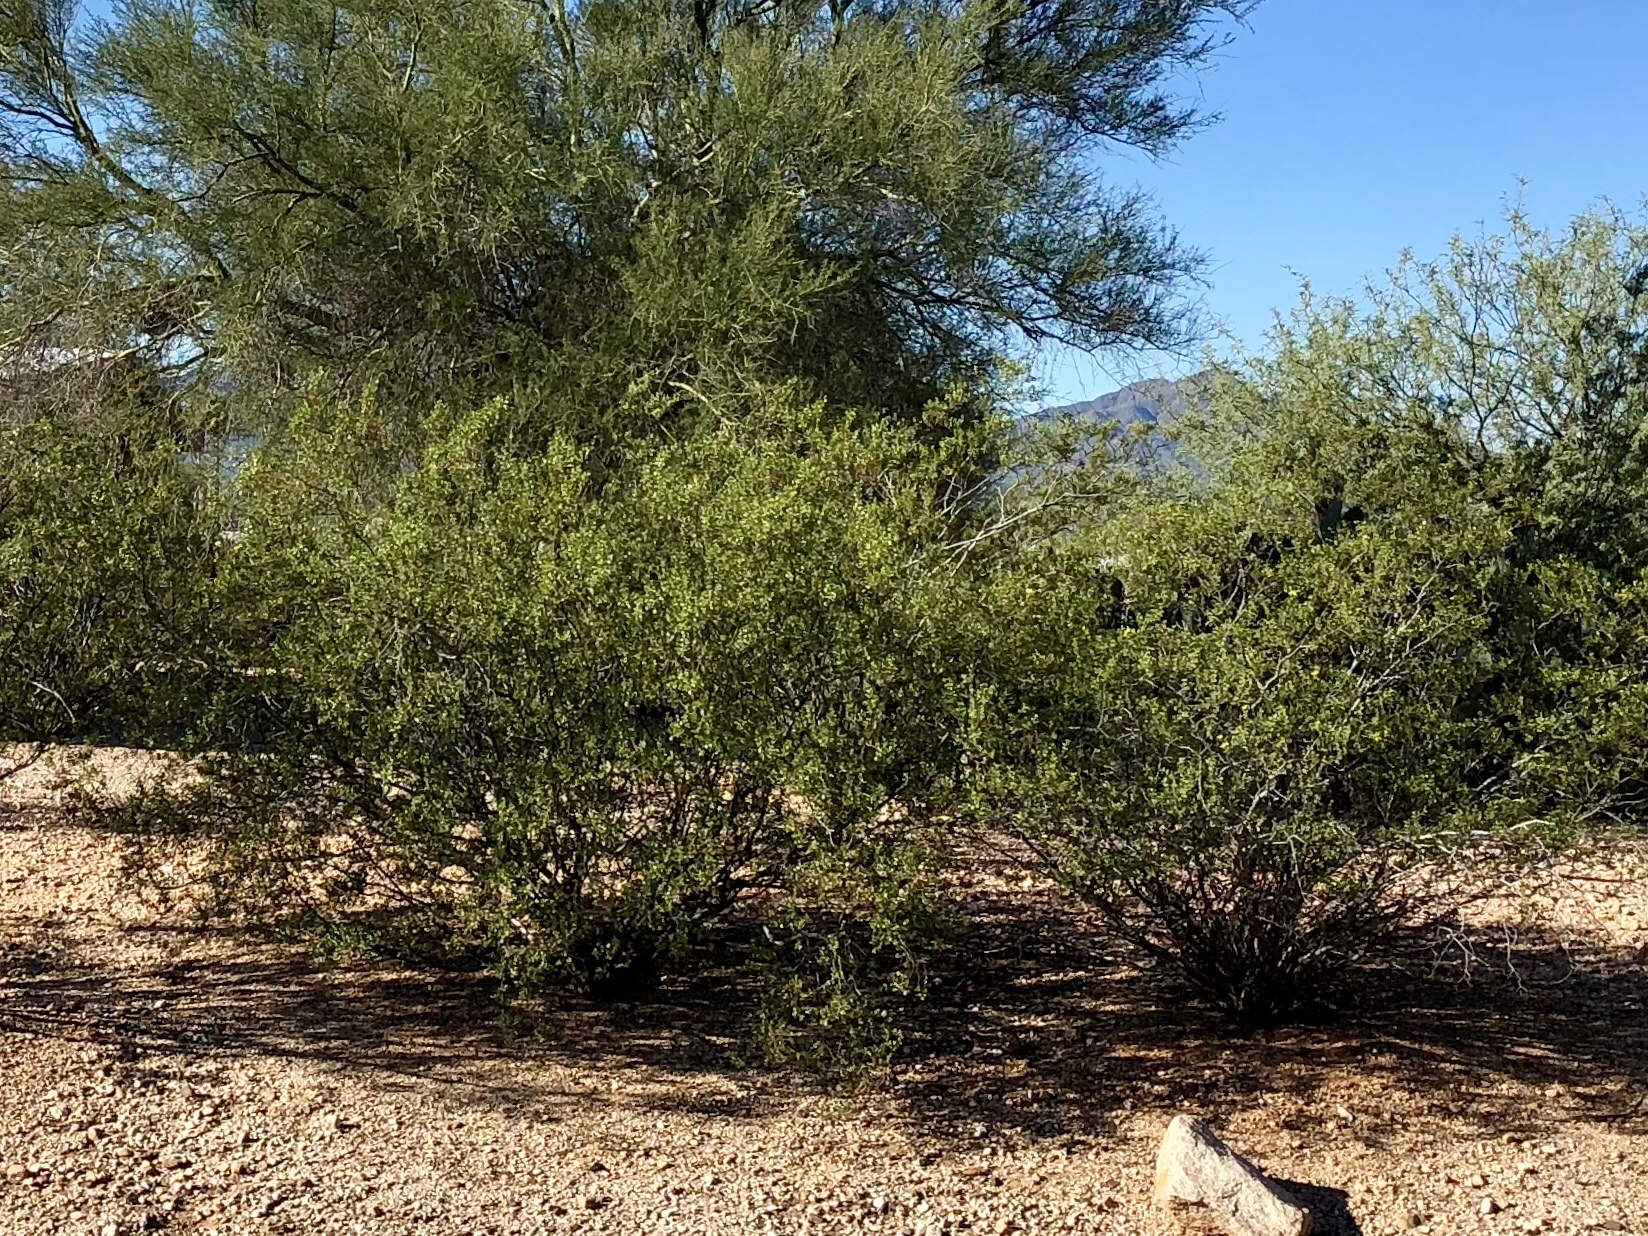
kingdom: Plantae
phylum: Tracheophyta
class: Magnoliopsida
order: Zygophyllales
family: Zygophyllaceae
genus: Larrea
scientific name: Larrea tridentata
